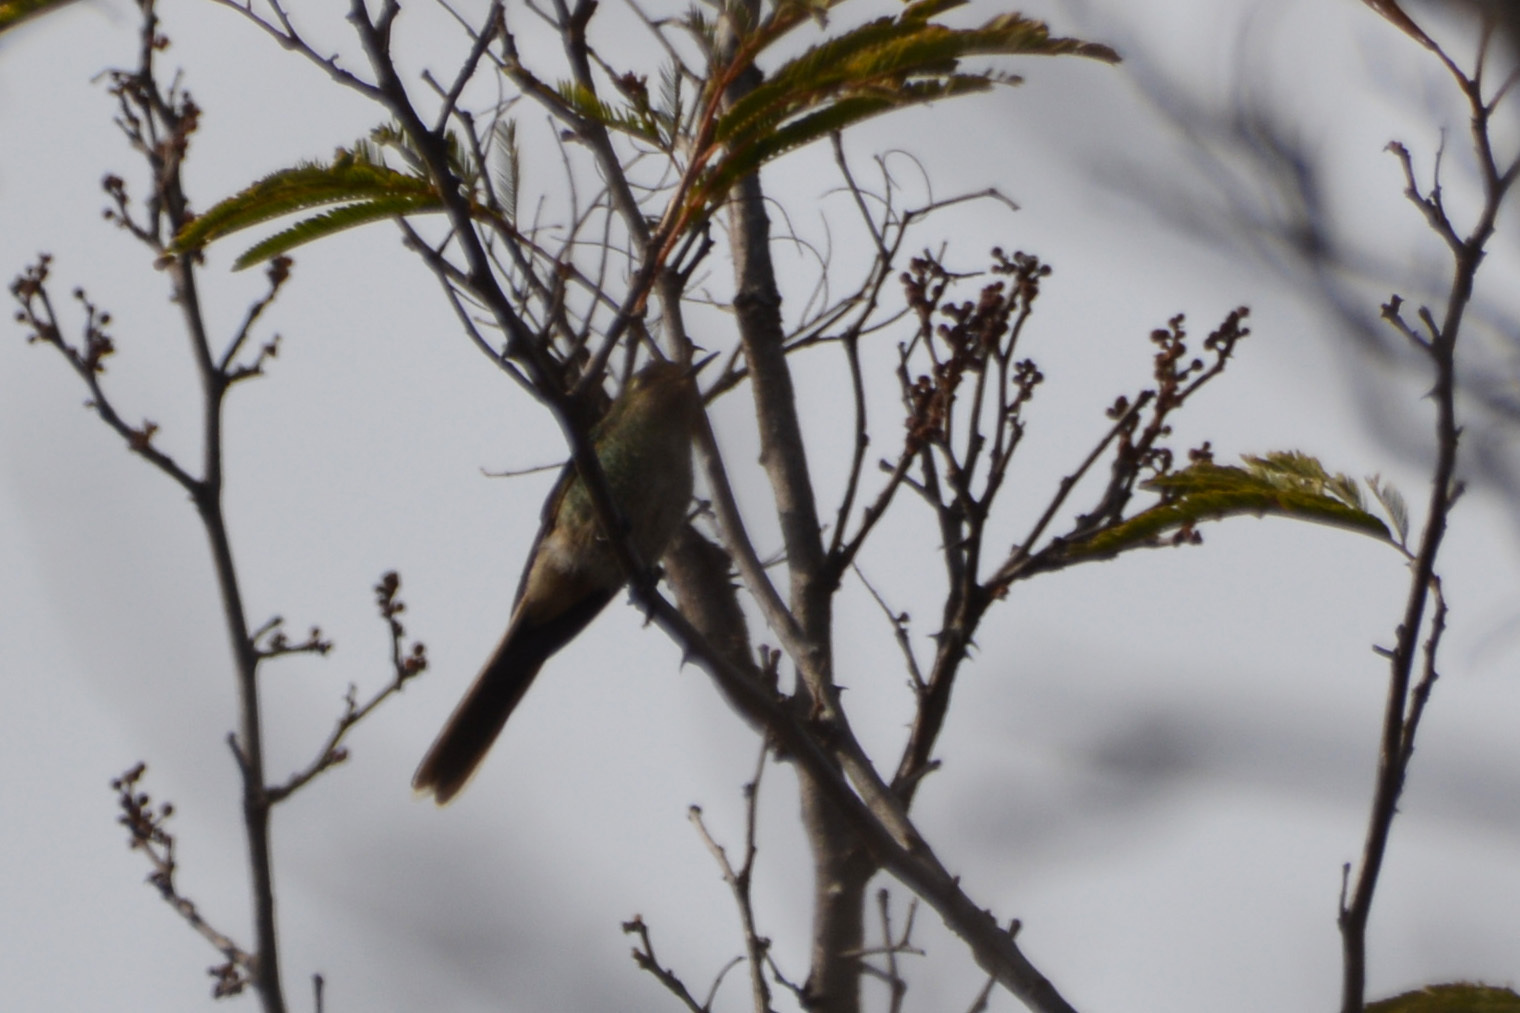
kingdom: Animalia
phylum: Chordata
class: Aves
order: Apodiformes
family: Trochilidae
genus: Sappho
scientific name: Sappho sparganurus
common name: Red-tailed comet
